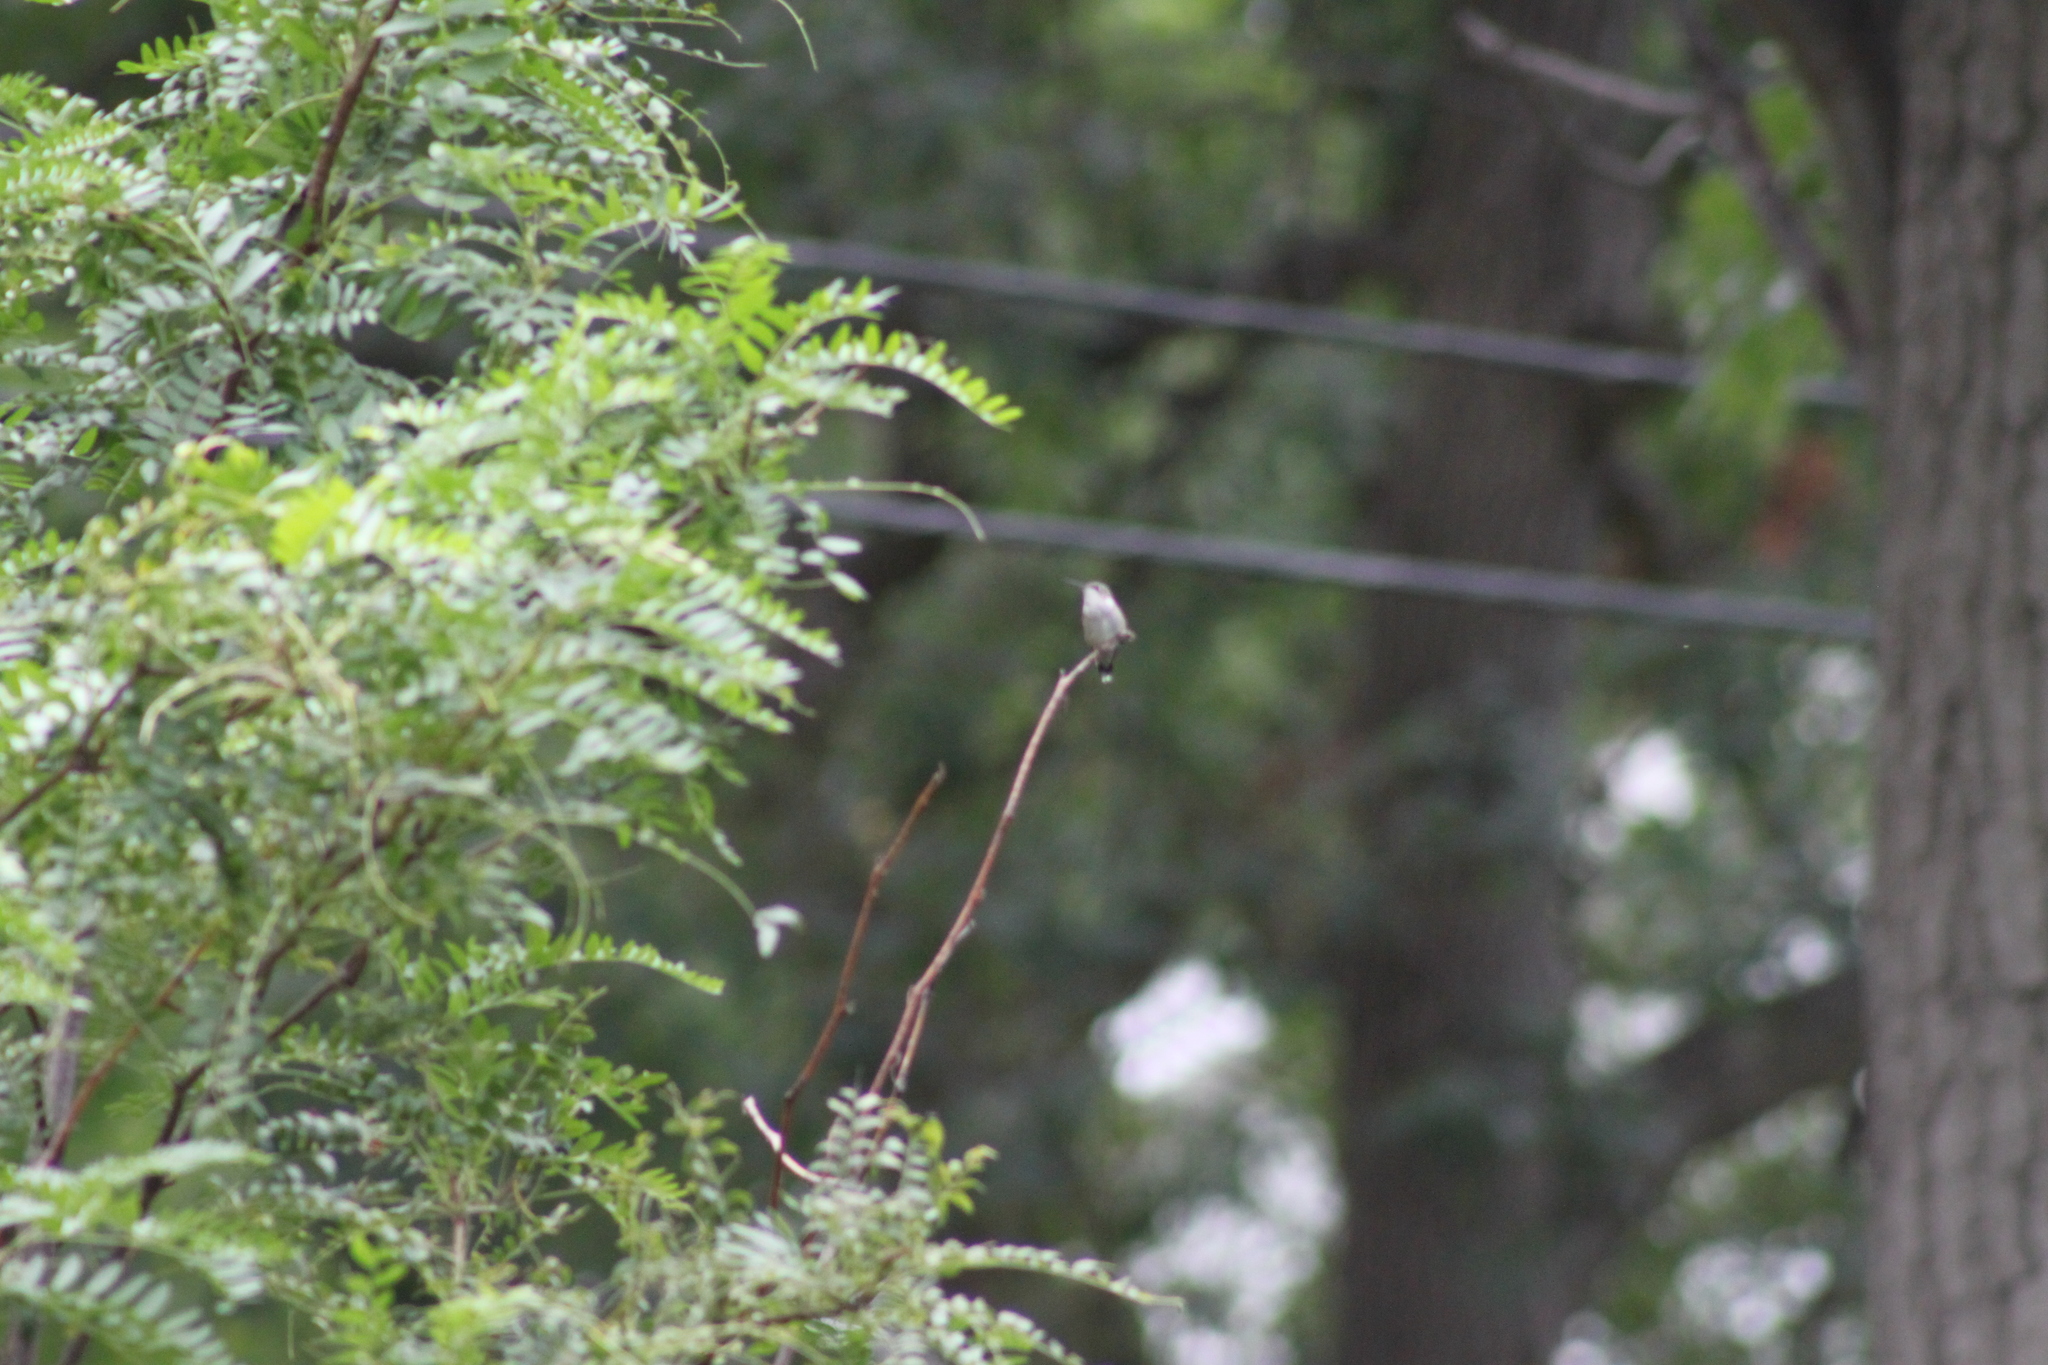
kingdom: Animalia
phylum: Chordata
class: Aves
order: Apodiformes
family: Trochilidae
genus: Archilochus
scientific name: Archilochus colubris
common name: Ruby-throated hummingbird
